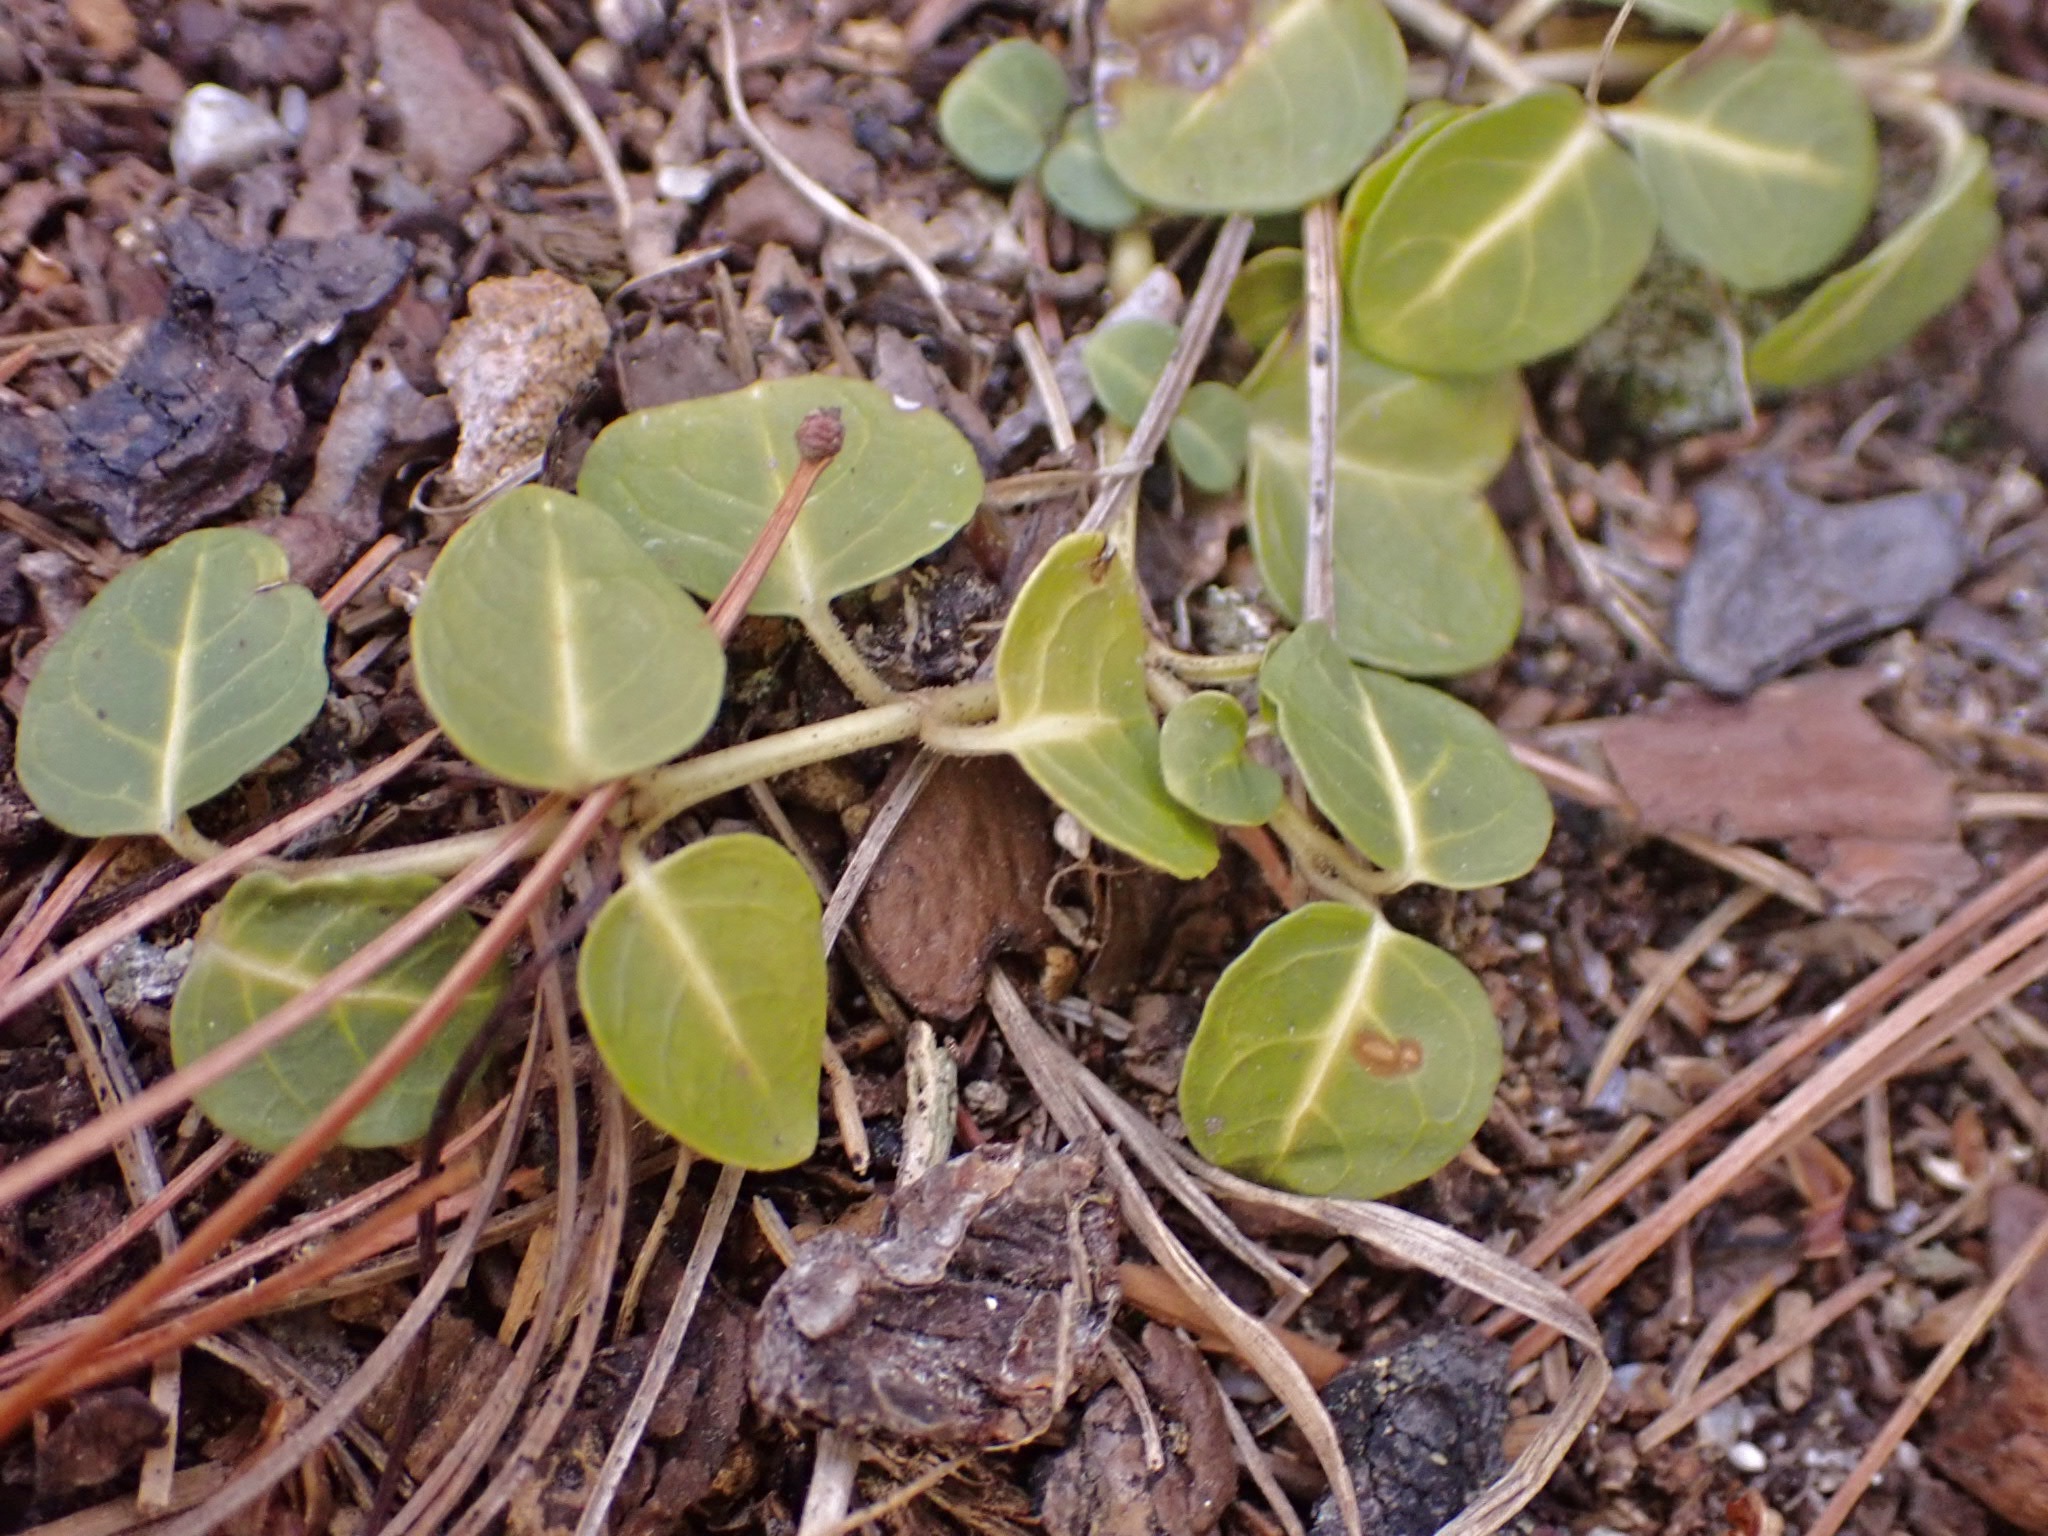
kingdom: Plantae
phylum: Tracheophyta
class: Magnoliopsida
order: Gentianales
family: Rubiaceae
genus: Mitchella
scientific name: Mitchella repens
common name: Partridge-berry
